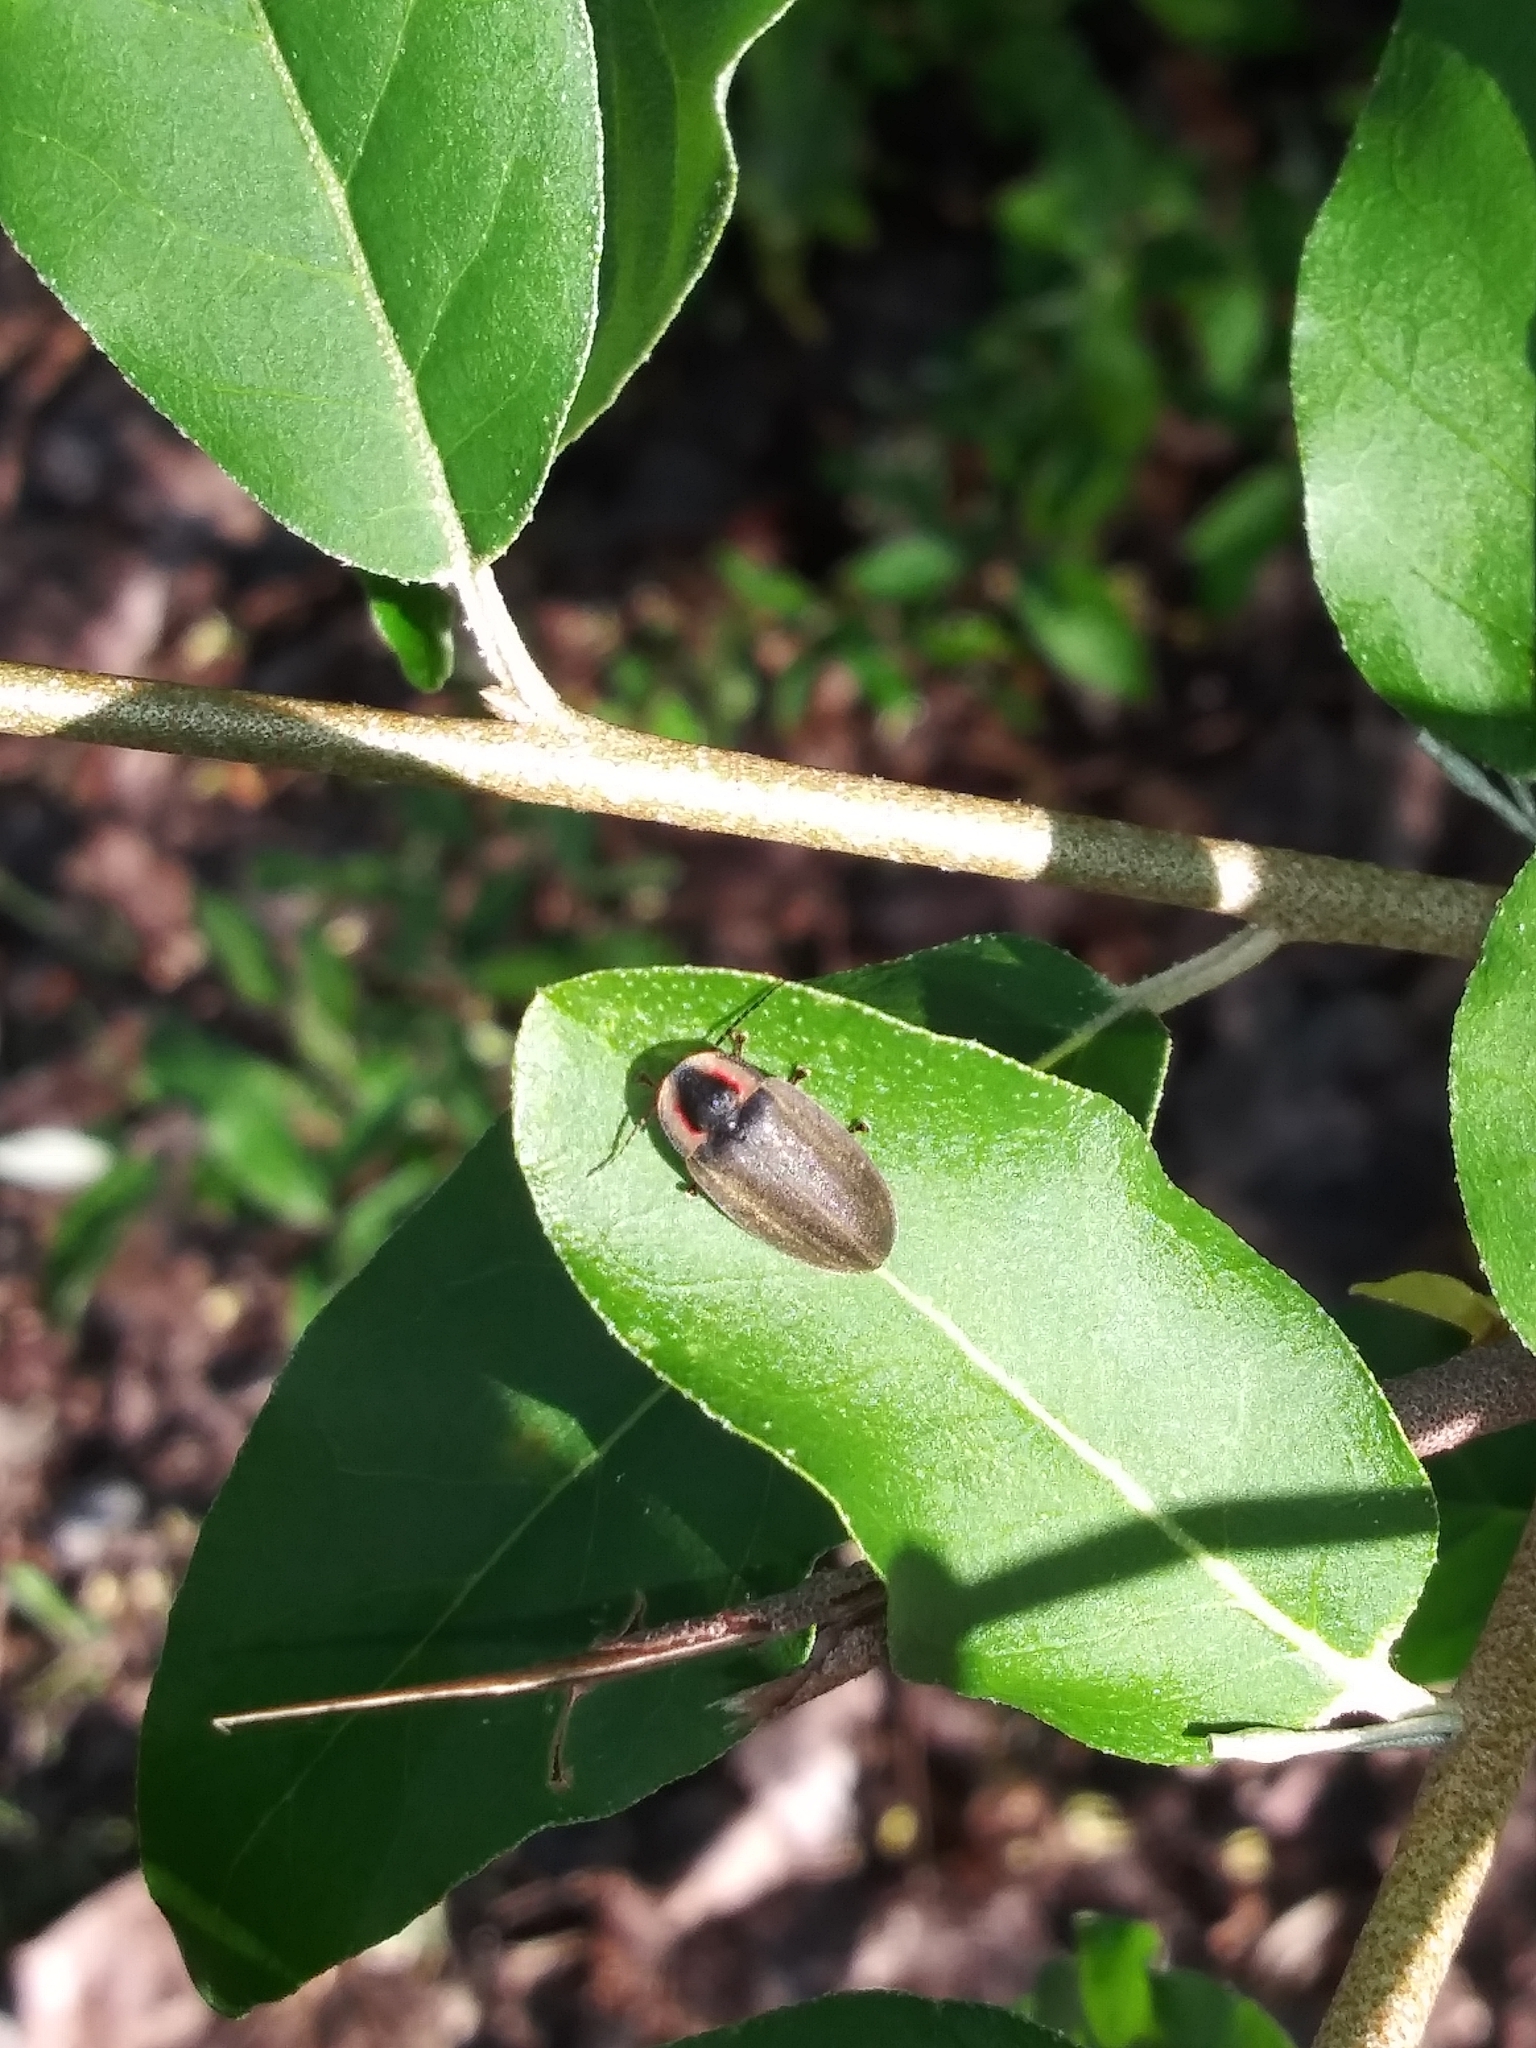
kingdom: Animalia
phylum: Arthropoda
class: Insecta
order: Coleoptera
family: Lampyridae
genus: Photinus
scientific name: Photinus corrusca
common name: Winter firefly
